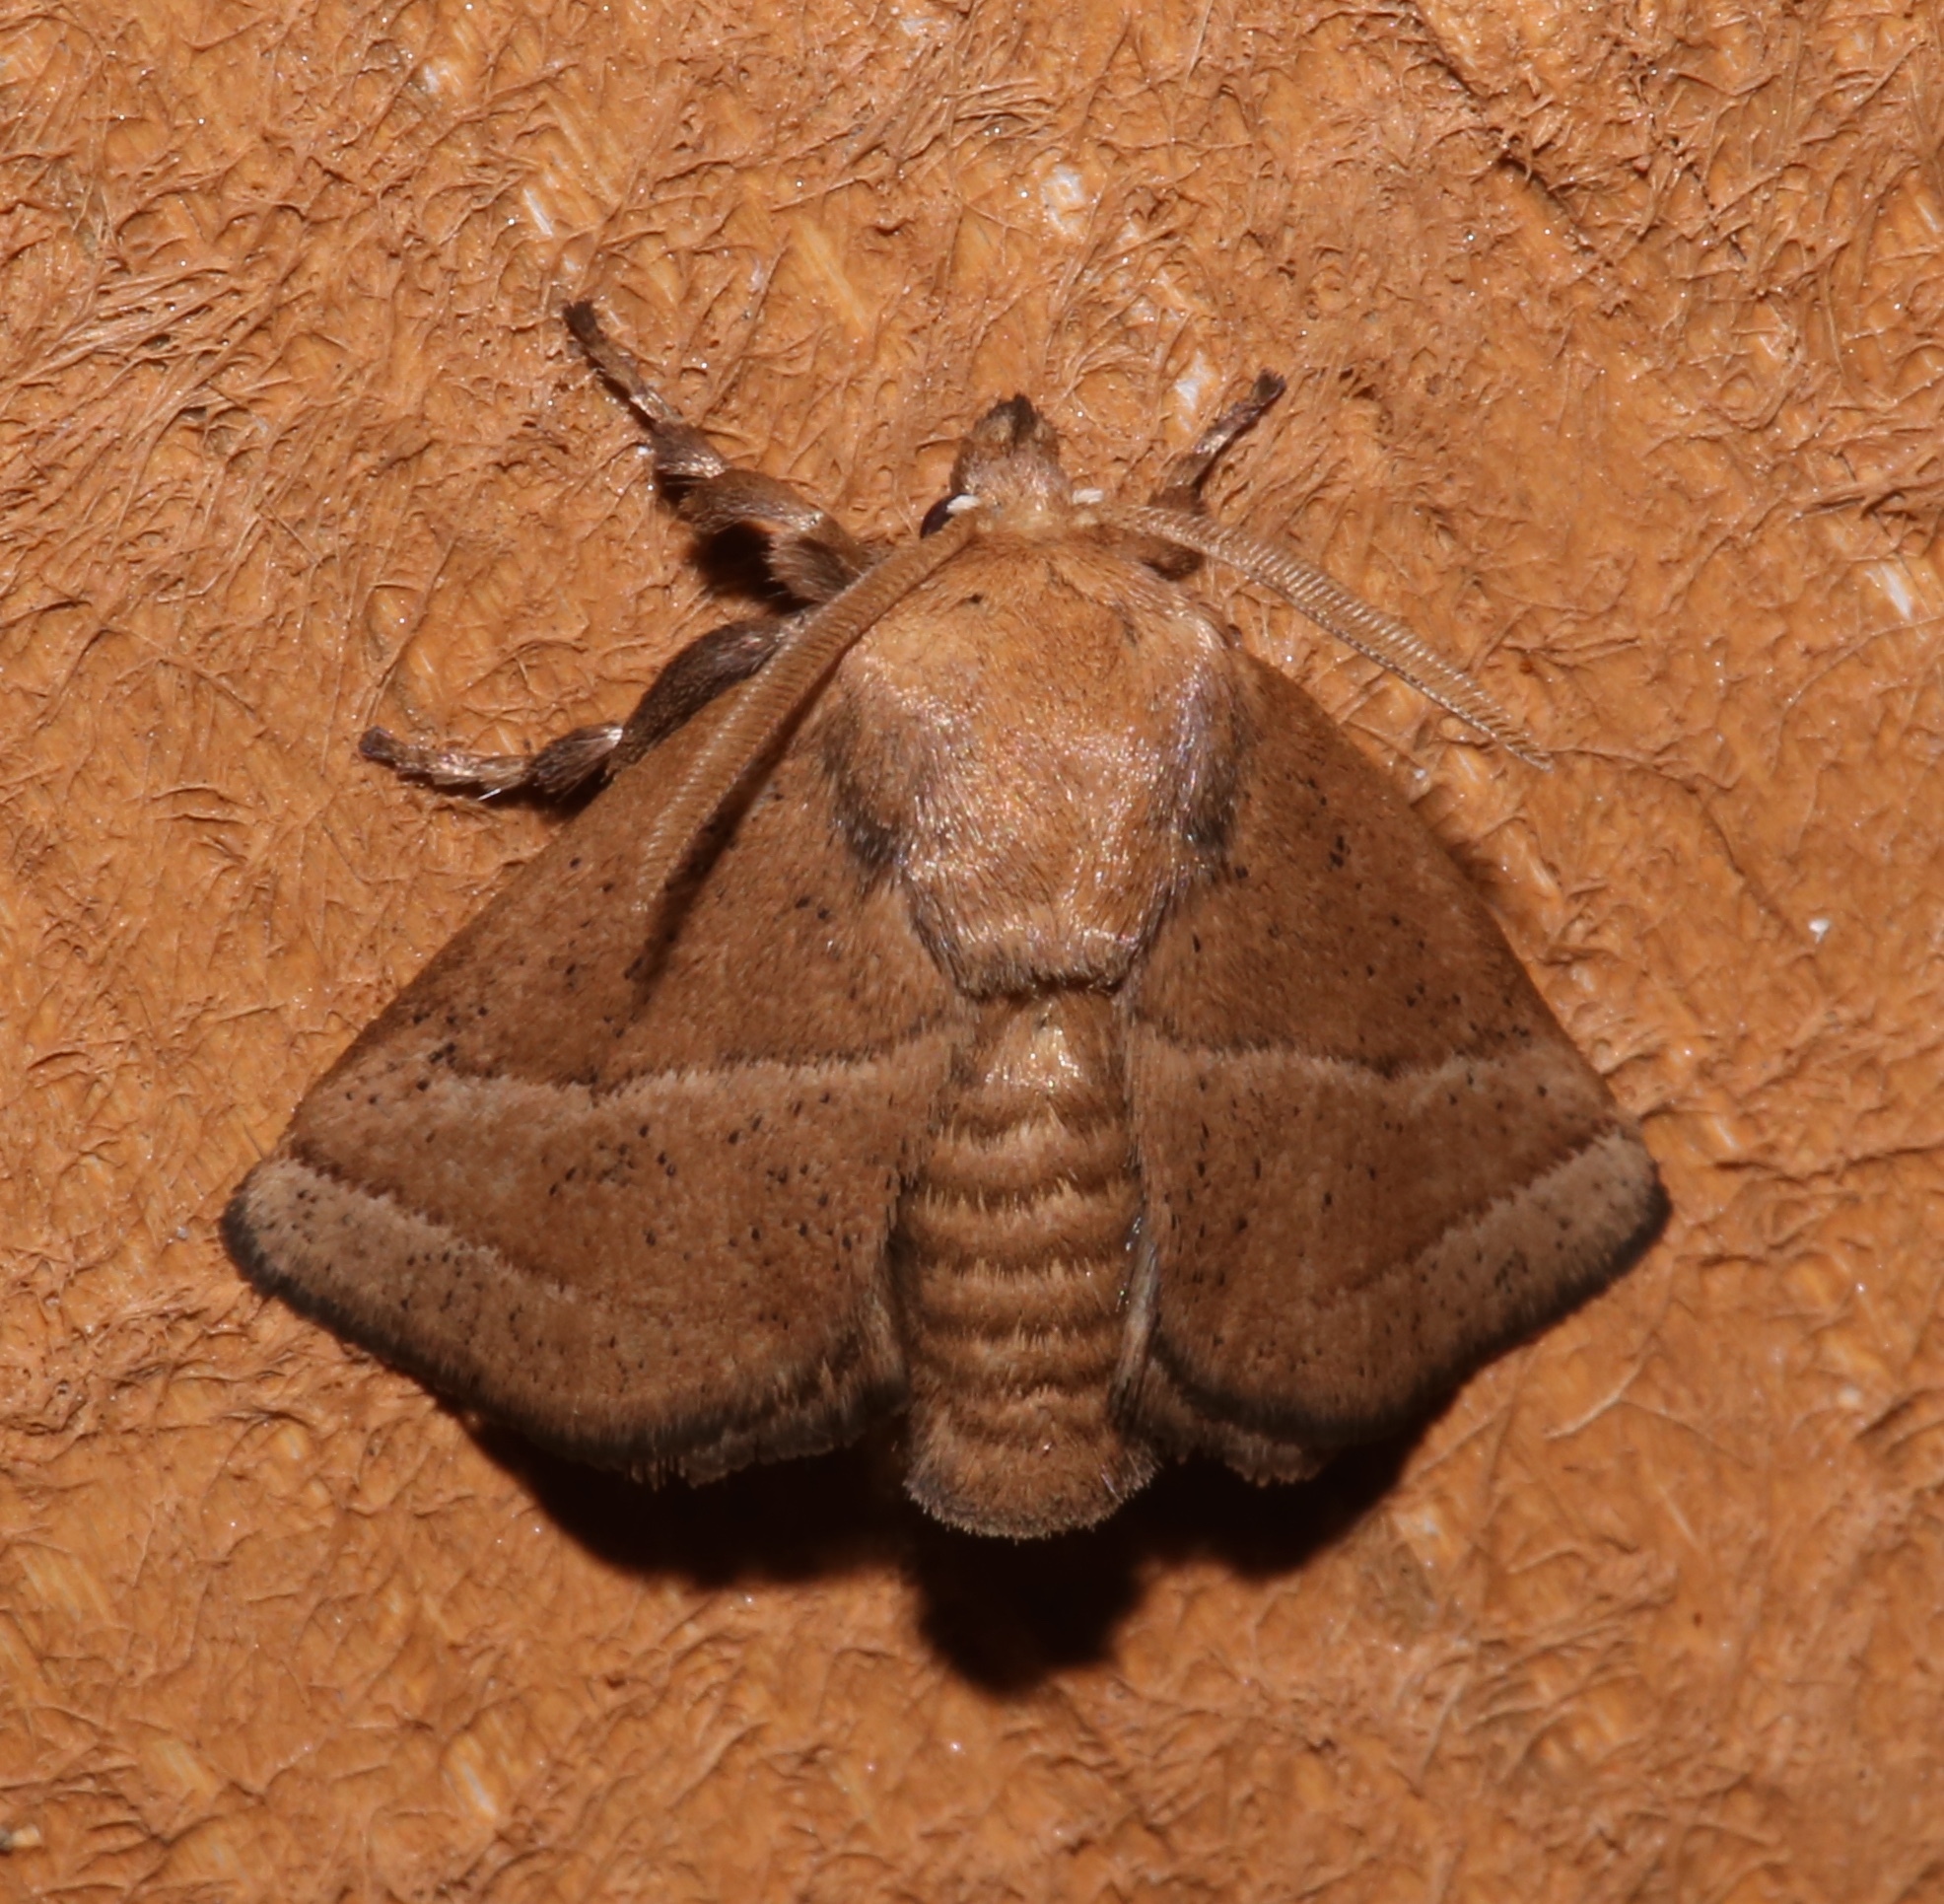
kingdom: Animalia
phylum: Arthropoda
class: Insecta
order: Lepidoptera
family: Limacodidae
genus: Natada
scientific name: Natada nasoni
